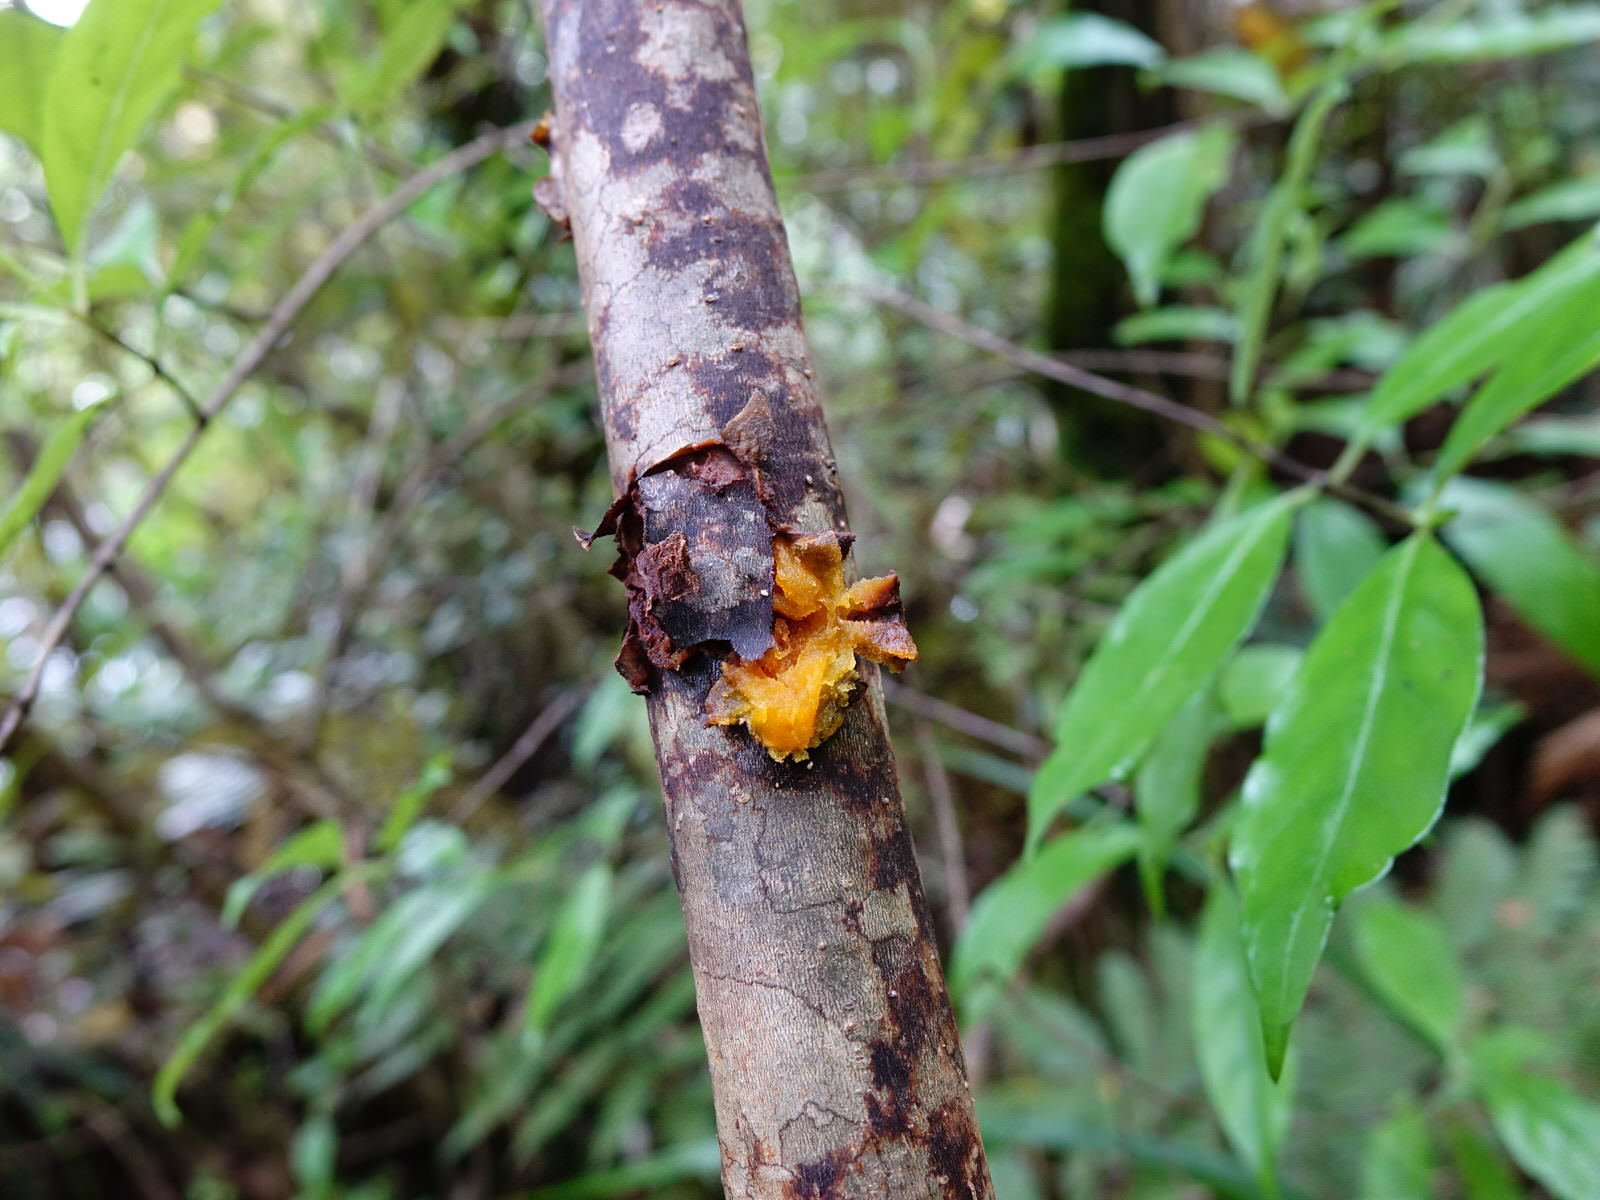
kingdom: Plantae
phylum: Tracheophyta
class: Magnoliopsida
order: Gentianales
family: Rubiaceae
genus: Coprosma
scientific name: Coprosma autumnalis
